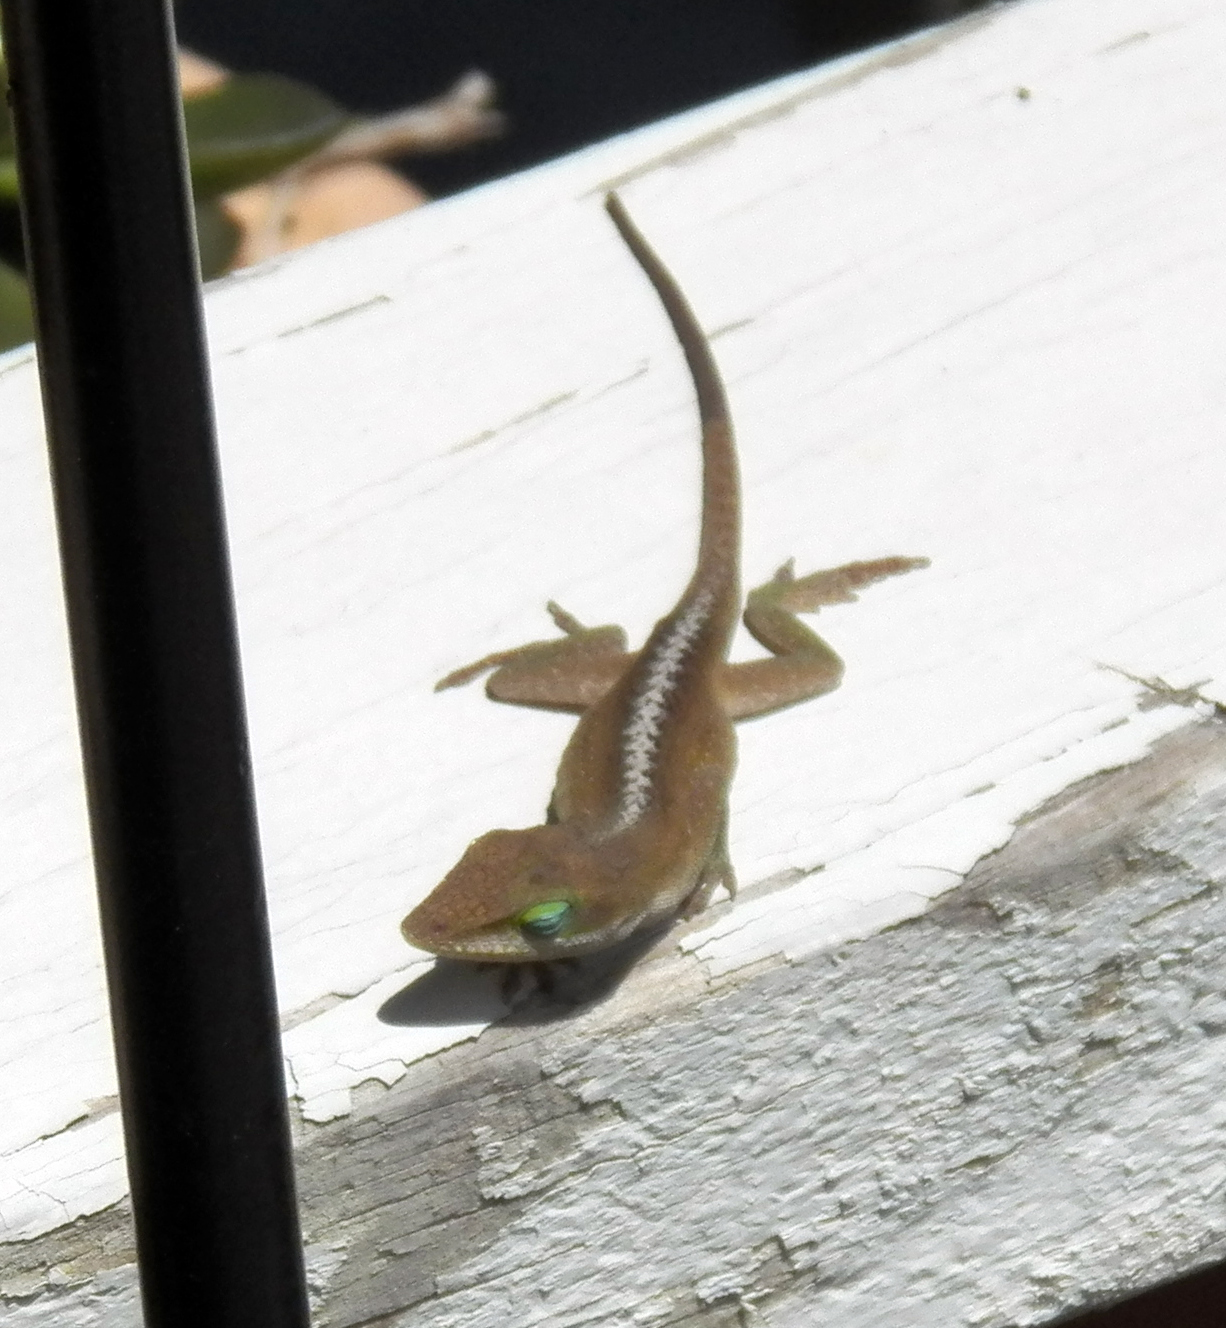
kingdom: Animalia
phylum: Chordata
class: Squamata
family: Dactyloidae
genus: Anolis
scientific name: Anolis carolinensis
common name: Green anole
